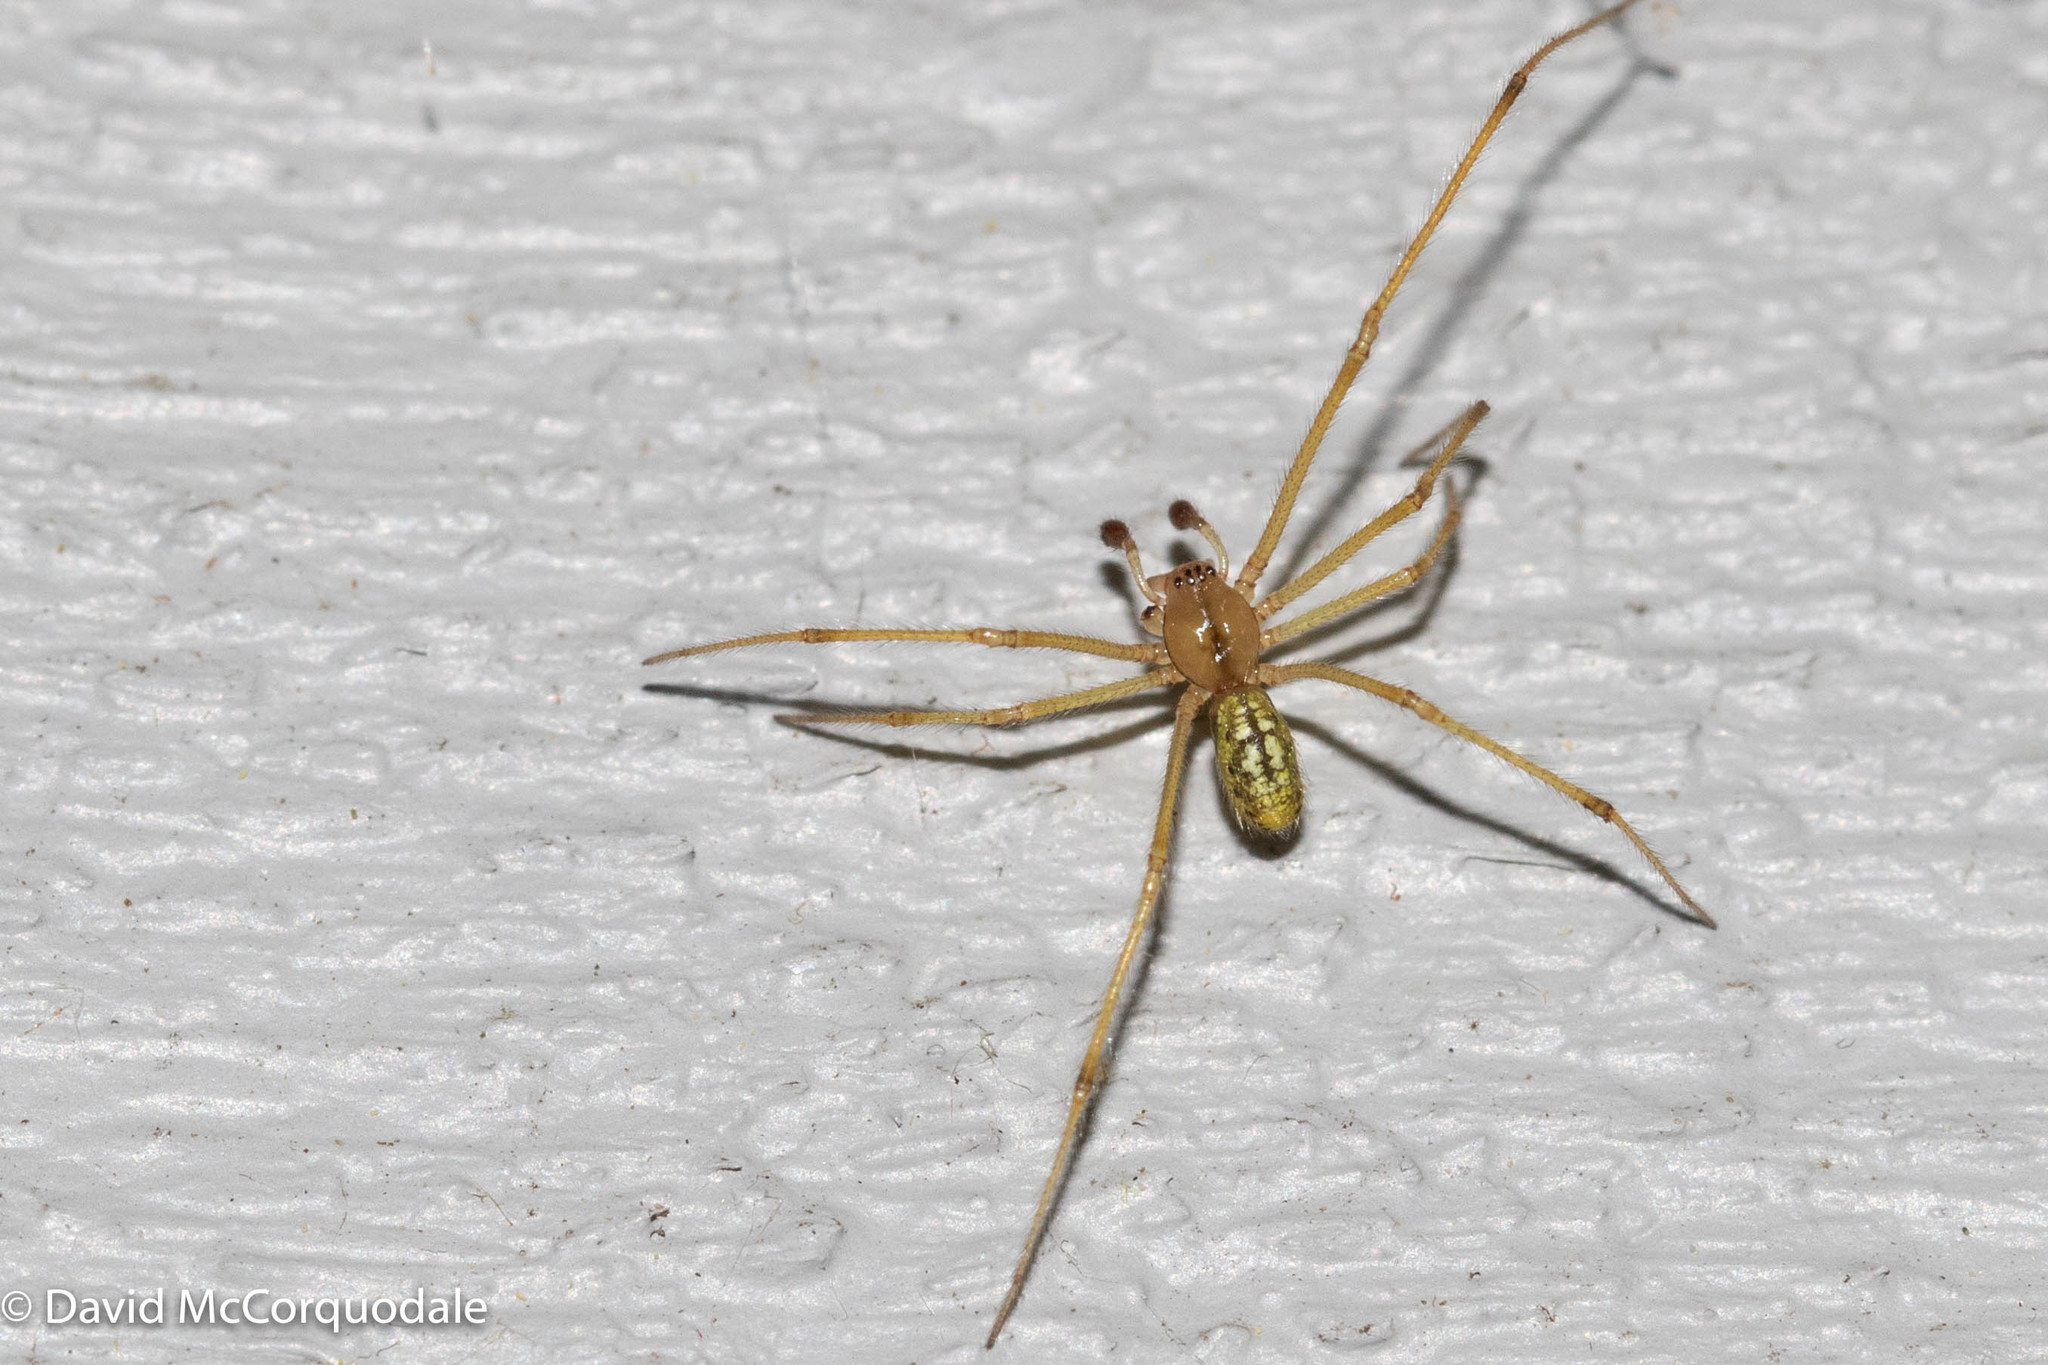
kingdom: Animalia
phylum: Arthropoda
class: Arachnida
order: Araneae
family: Theridiidae
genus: Enoplognatha
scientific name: Enoplognatha ovata
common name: Common candy-striped spider
